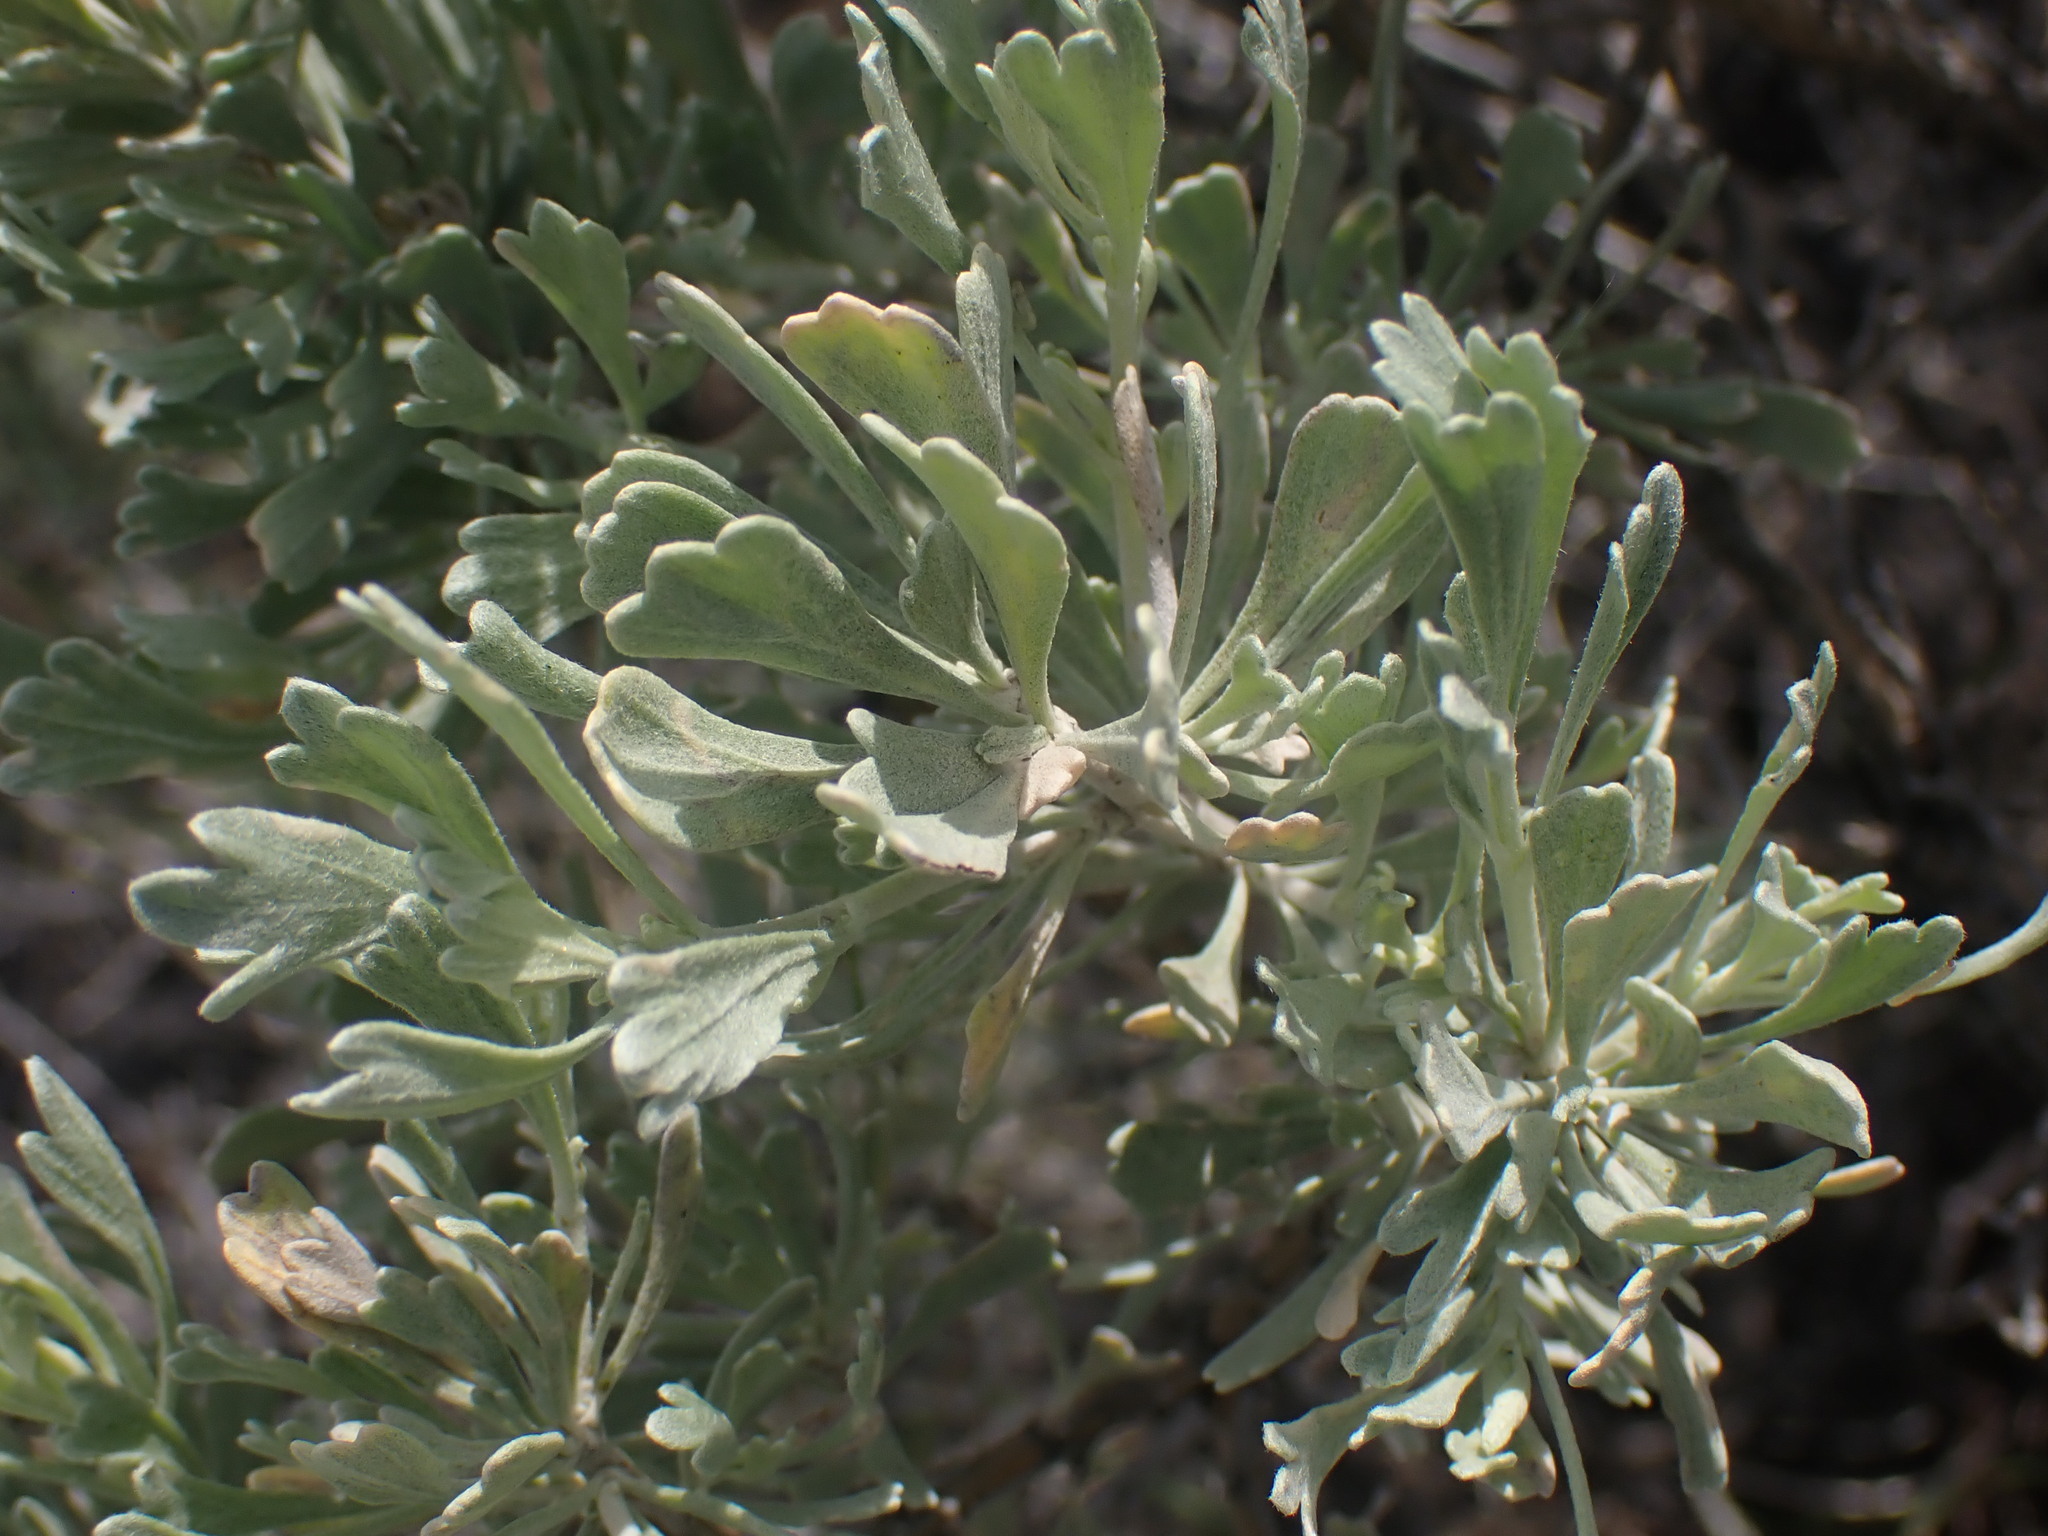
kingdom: Plantae
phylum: Tracheophyta
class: Magnoliopsida
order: Asterales
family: Asteraceae
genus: Artemisia
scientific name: Artemisia tridentata
